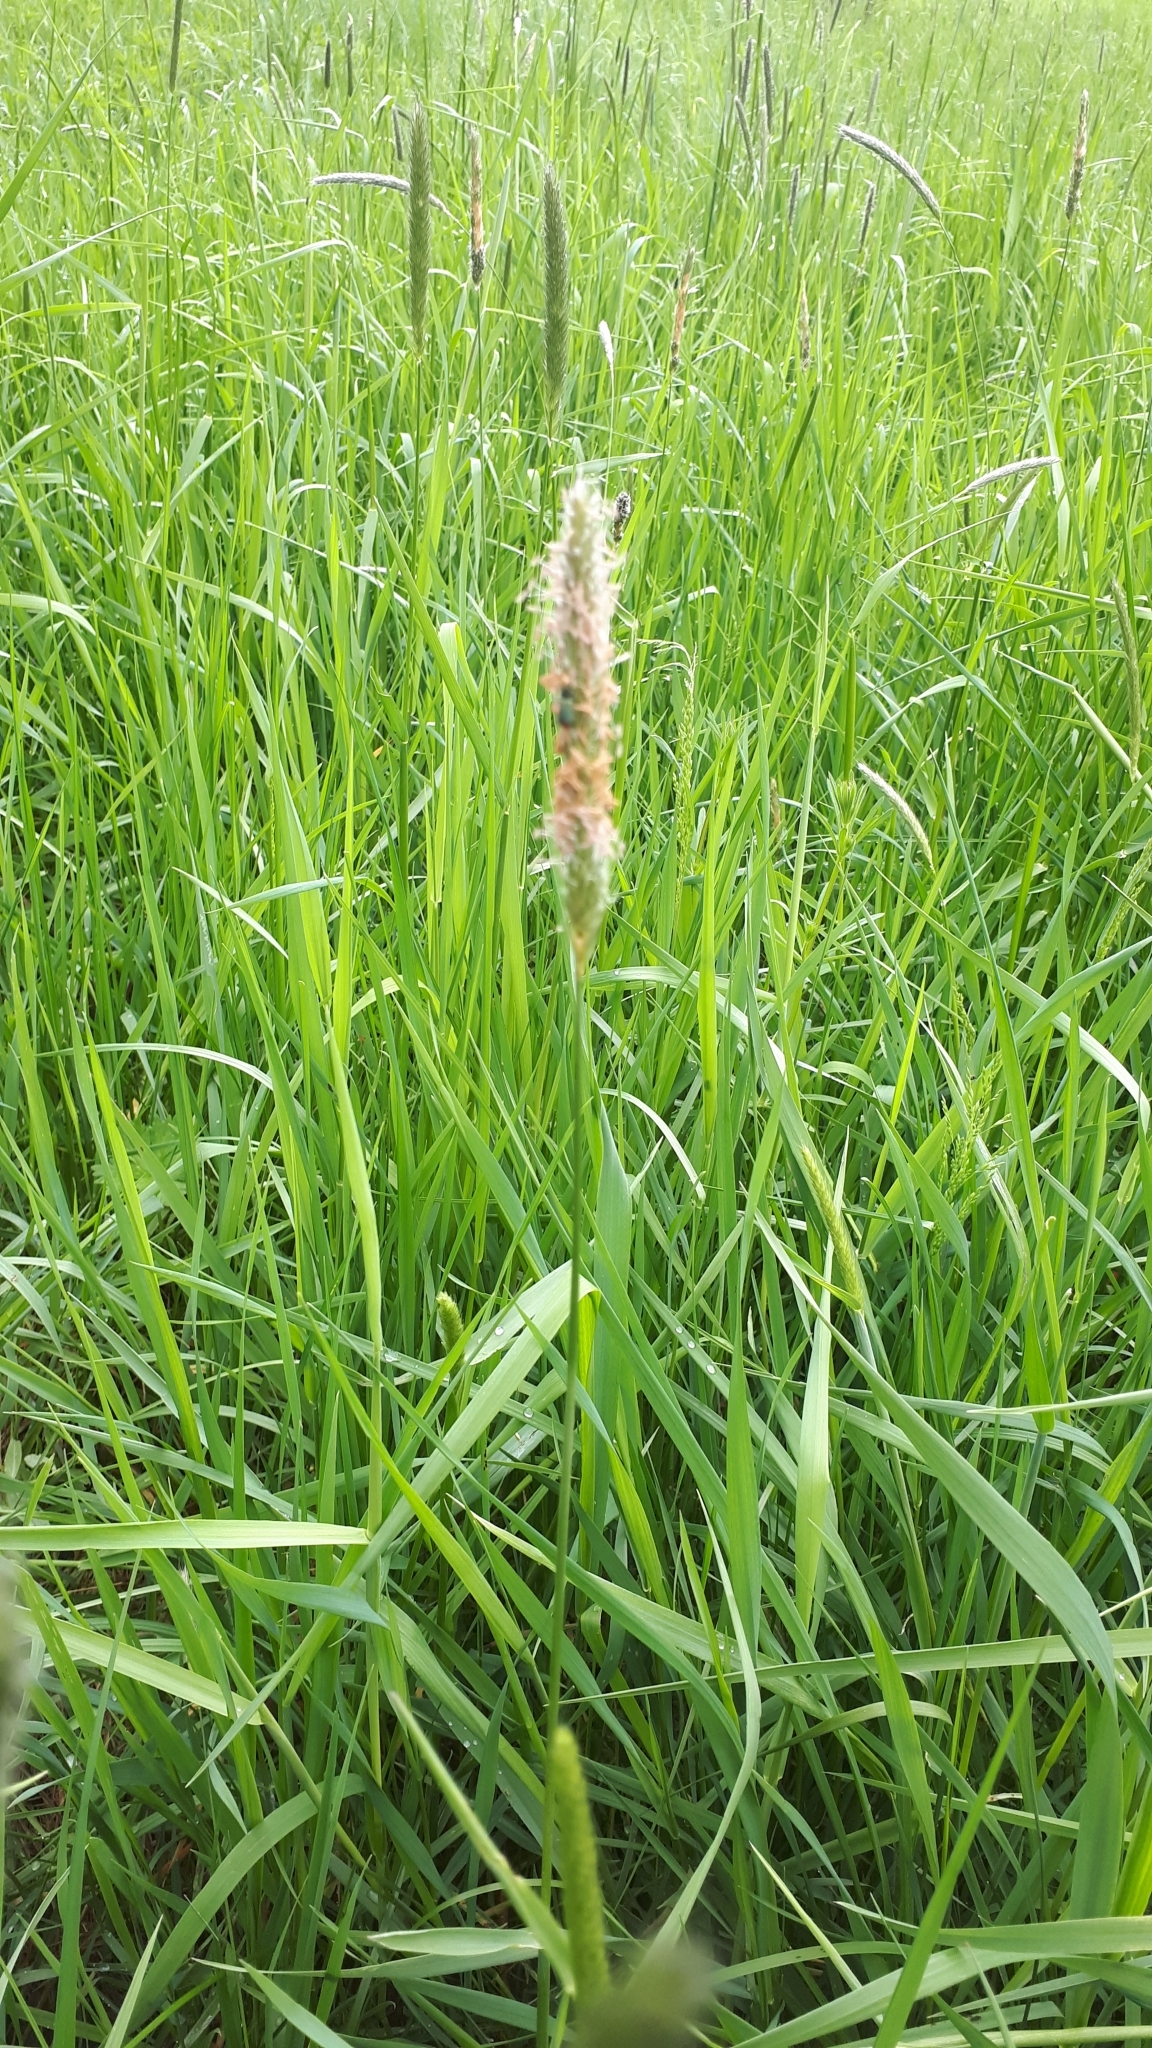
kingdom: Plantae
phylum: Tracheophyta
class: Liliopsida
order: Poales
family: Poaceae
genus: Alopecurus
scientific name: Alopecurus pratensis
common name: Meadow foxtail
